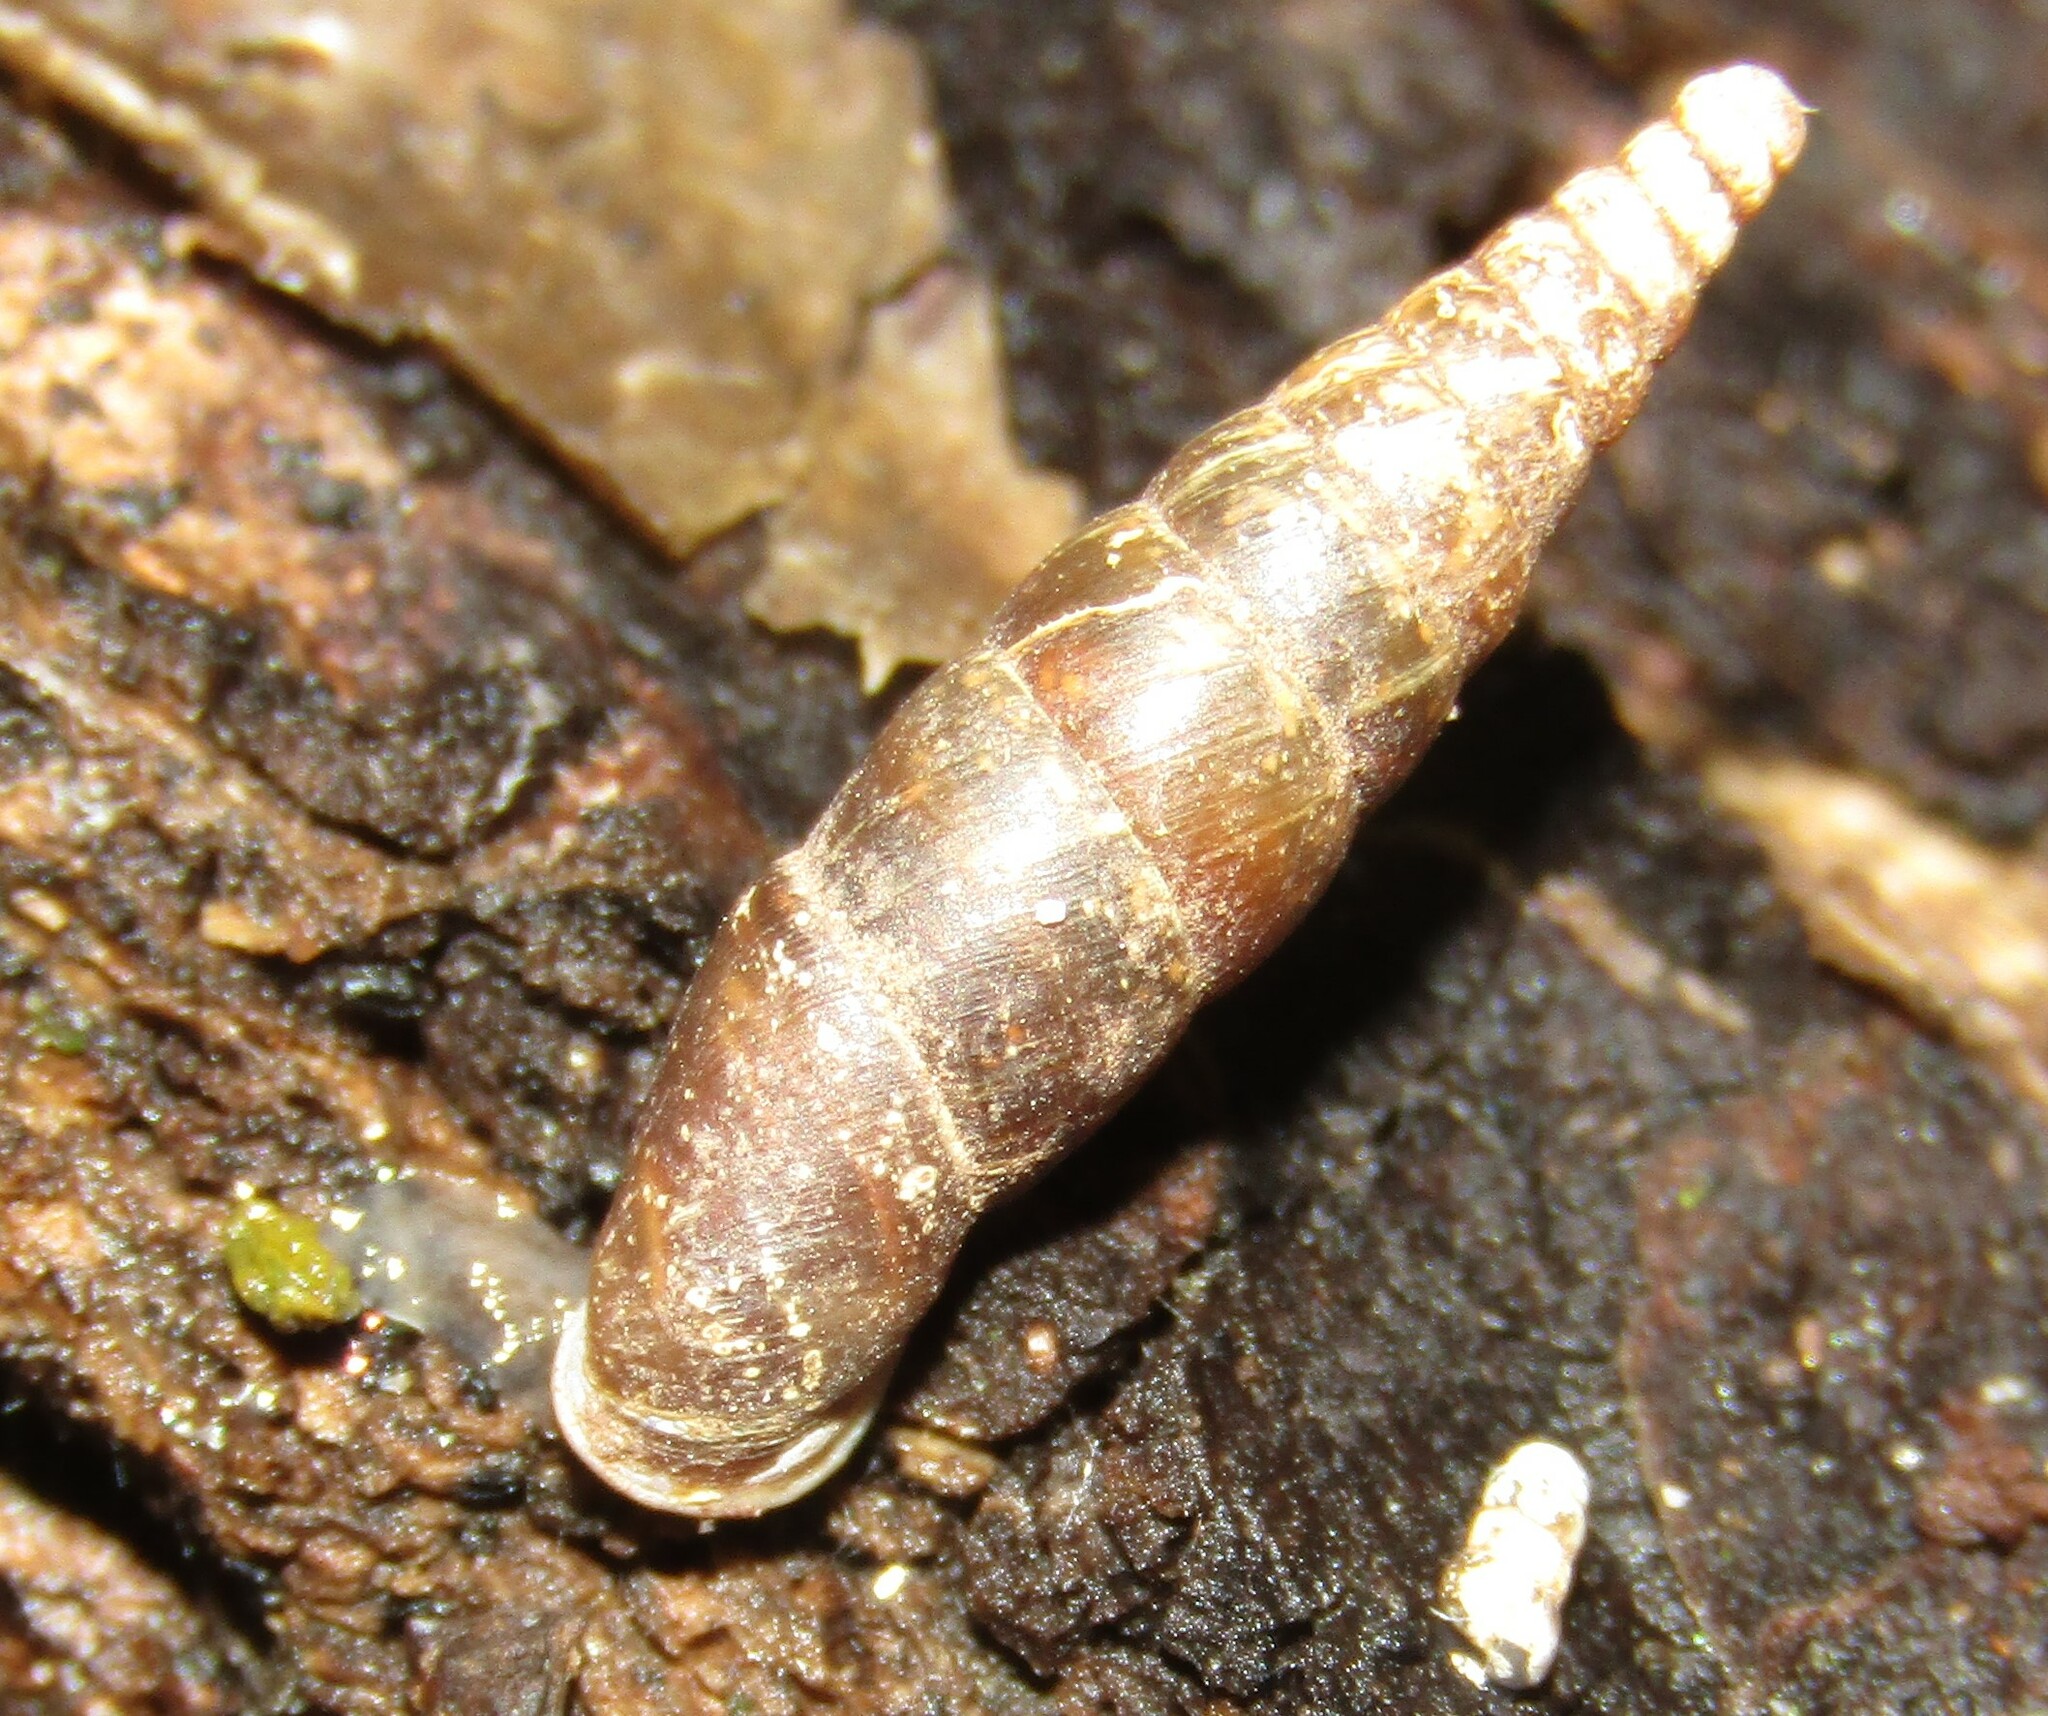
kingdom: Animalia
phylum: Mollusca
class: Gastropoda
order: Stylommatophora
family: Clausiliidae
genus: Cochlodina
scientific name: Cochlodina laminata
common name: Plaited door snail
